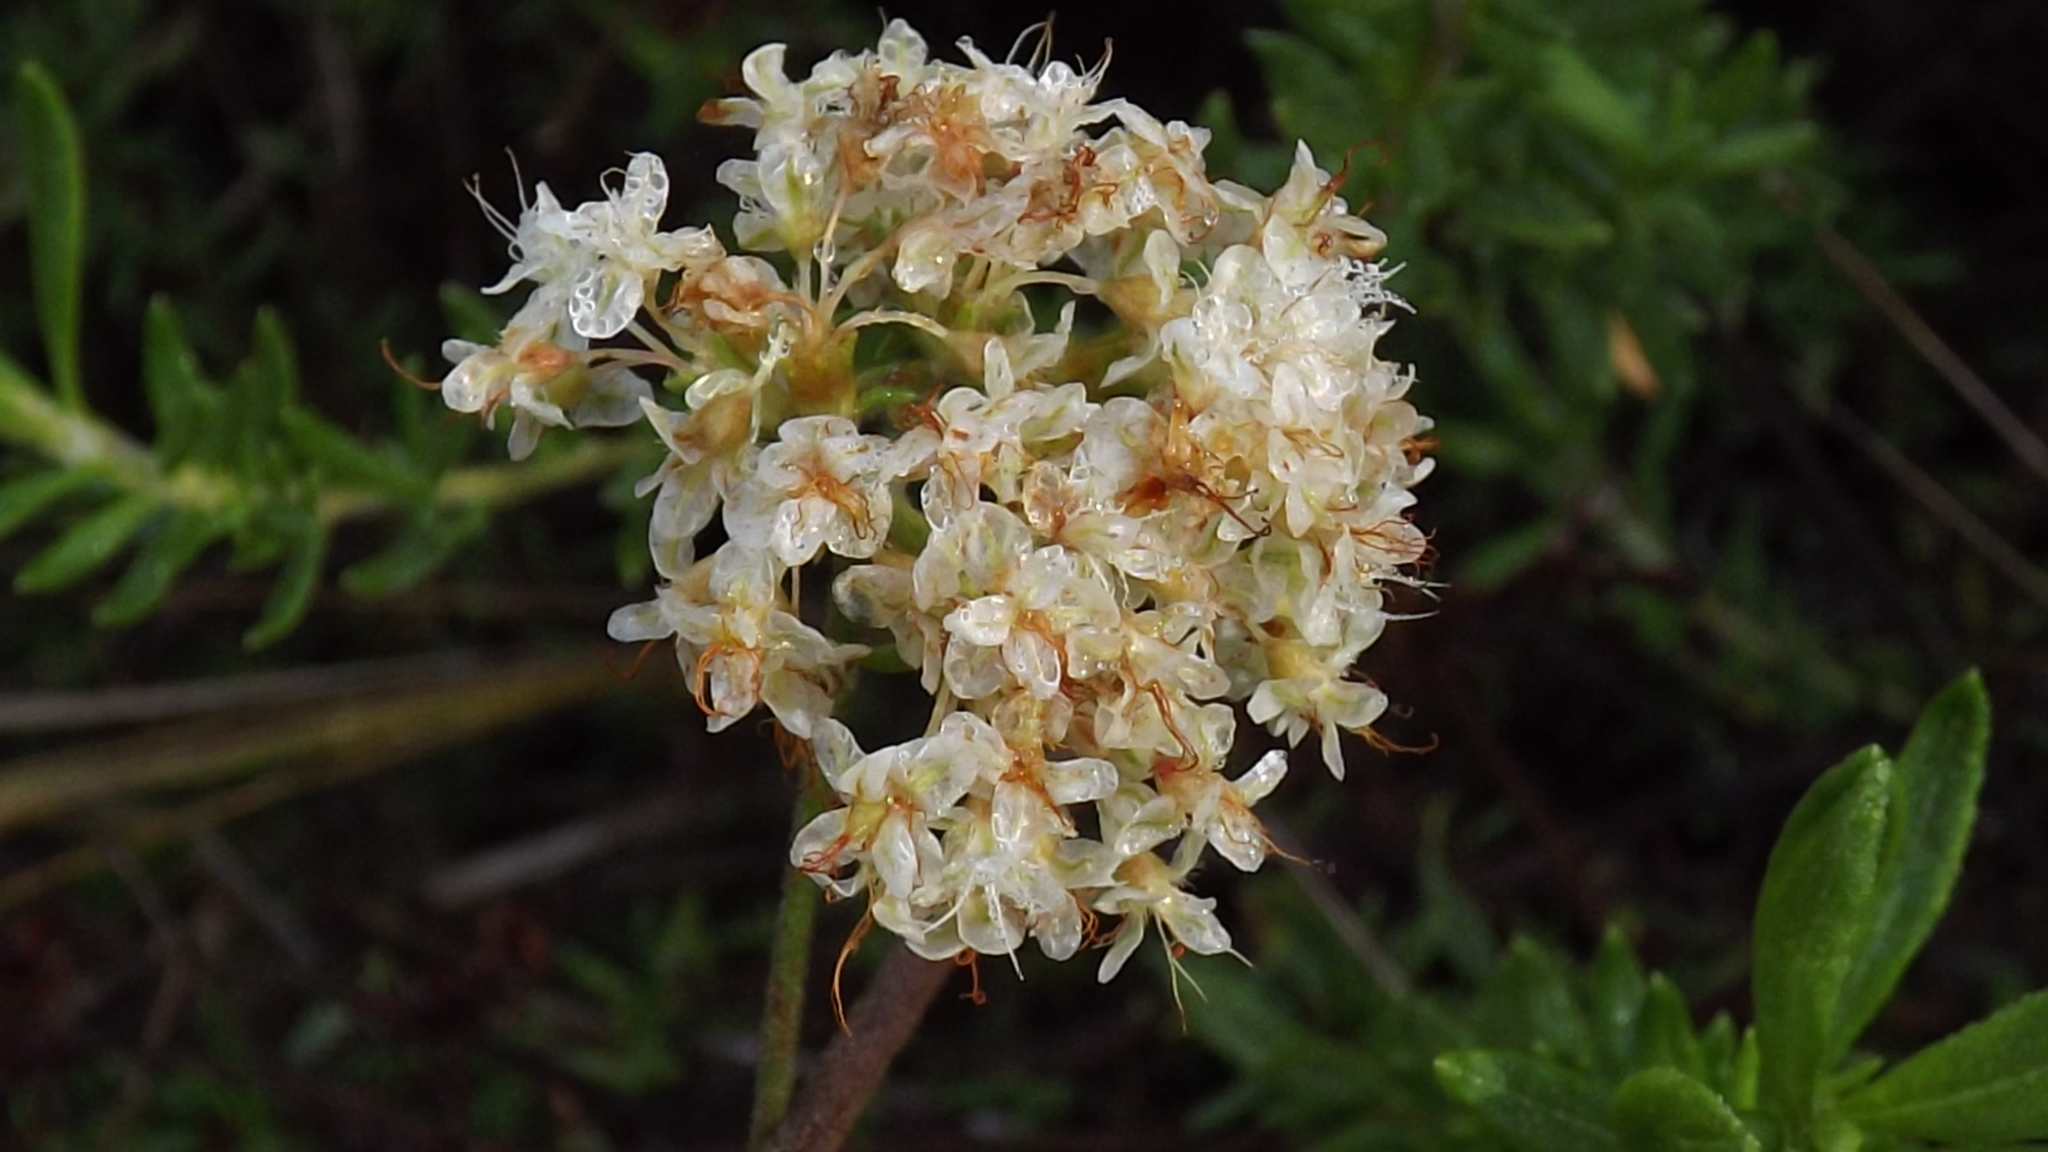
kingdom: Plantae
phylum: Tracheophyta
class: Magnoliopsida
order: Caryophyllales
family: Polygonaceae
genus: Eriogonum
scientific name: Eriogonum fasciculatum
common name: California wild buckwheat
